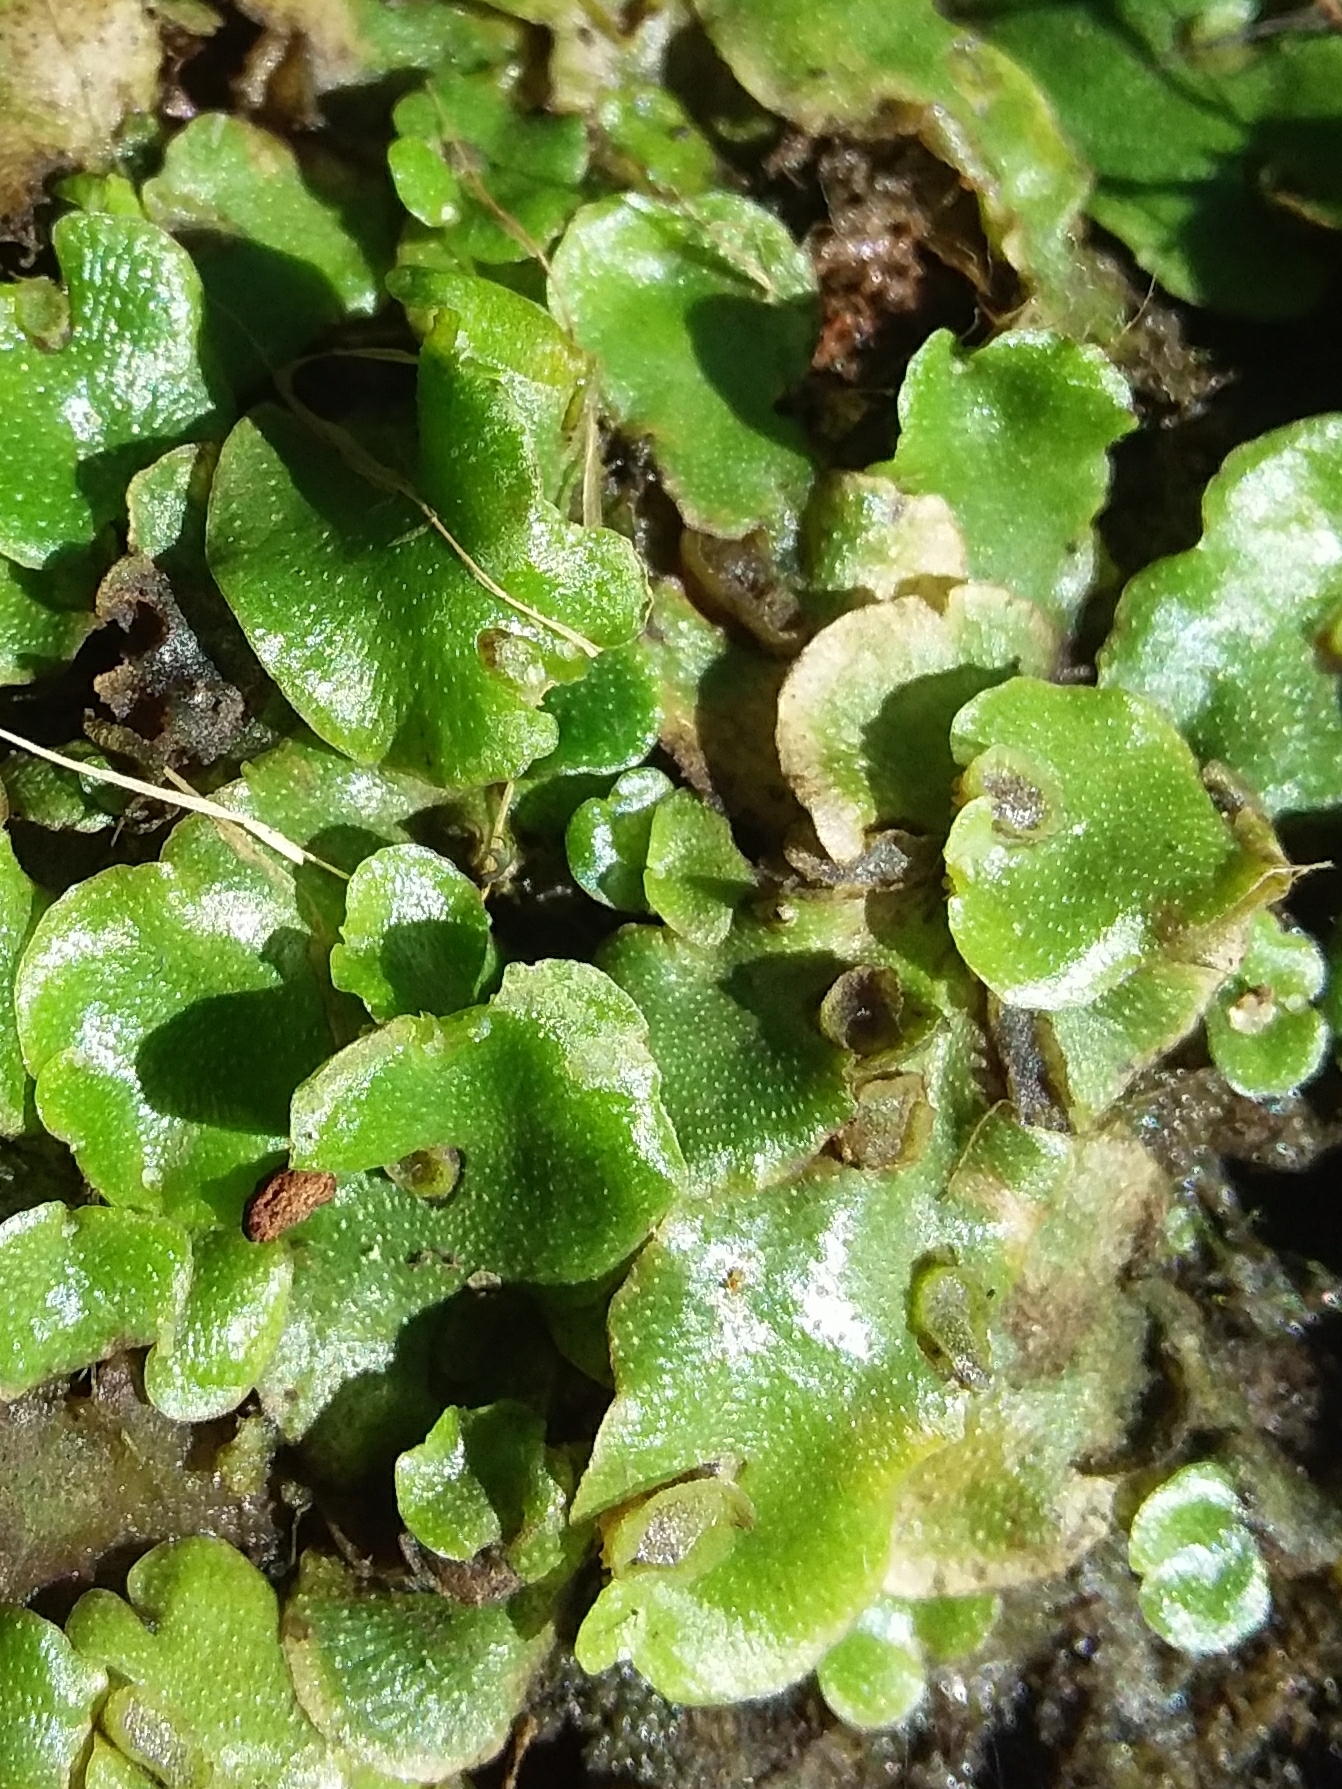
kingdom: Plantae
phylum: Marchantiophyta
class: Marchantiopsida
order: Lunulariales
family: Lunulariaceae
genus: Lunularia
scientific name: Lunularia cruciata
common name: Crescent-cup liverwort
